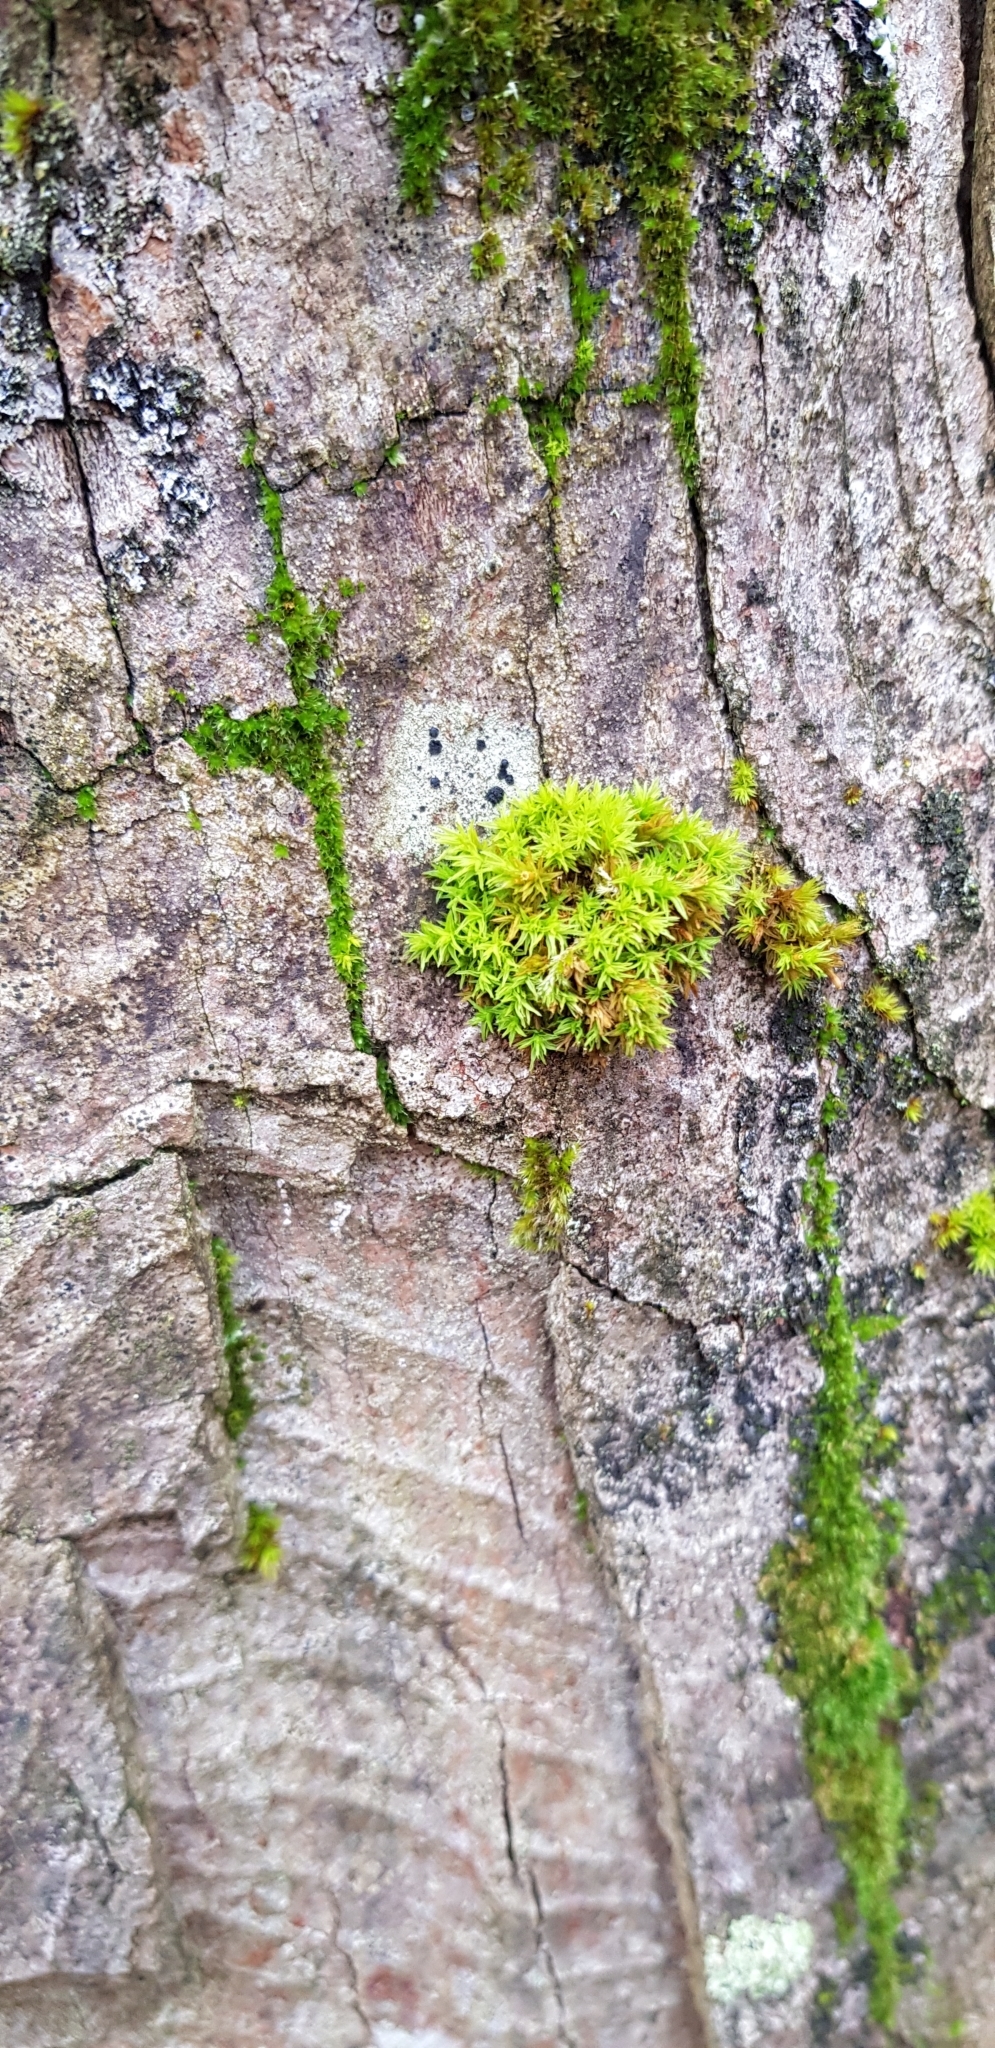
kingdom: Plantae
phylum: Bryophyta
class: Bryopsida
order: Orthotrichales
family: Orthotrichaceae
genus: Lewinskya
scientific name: Lewinskya affinis
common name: Wood bristle-moss
